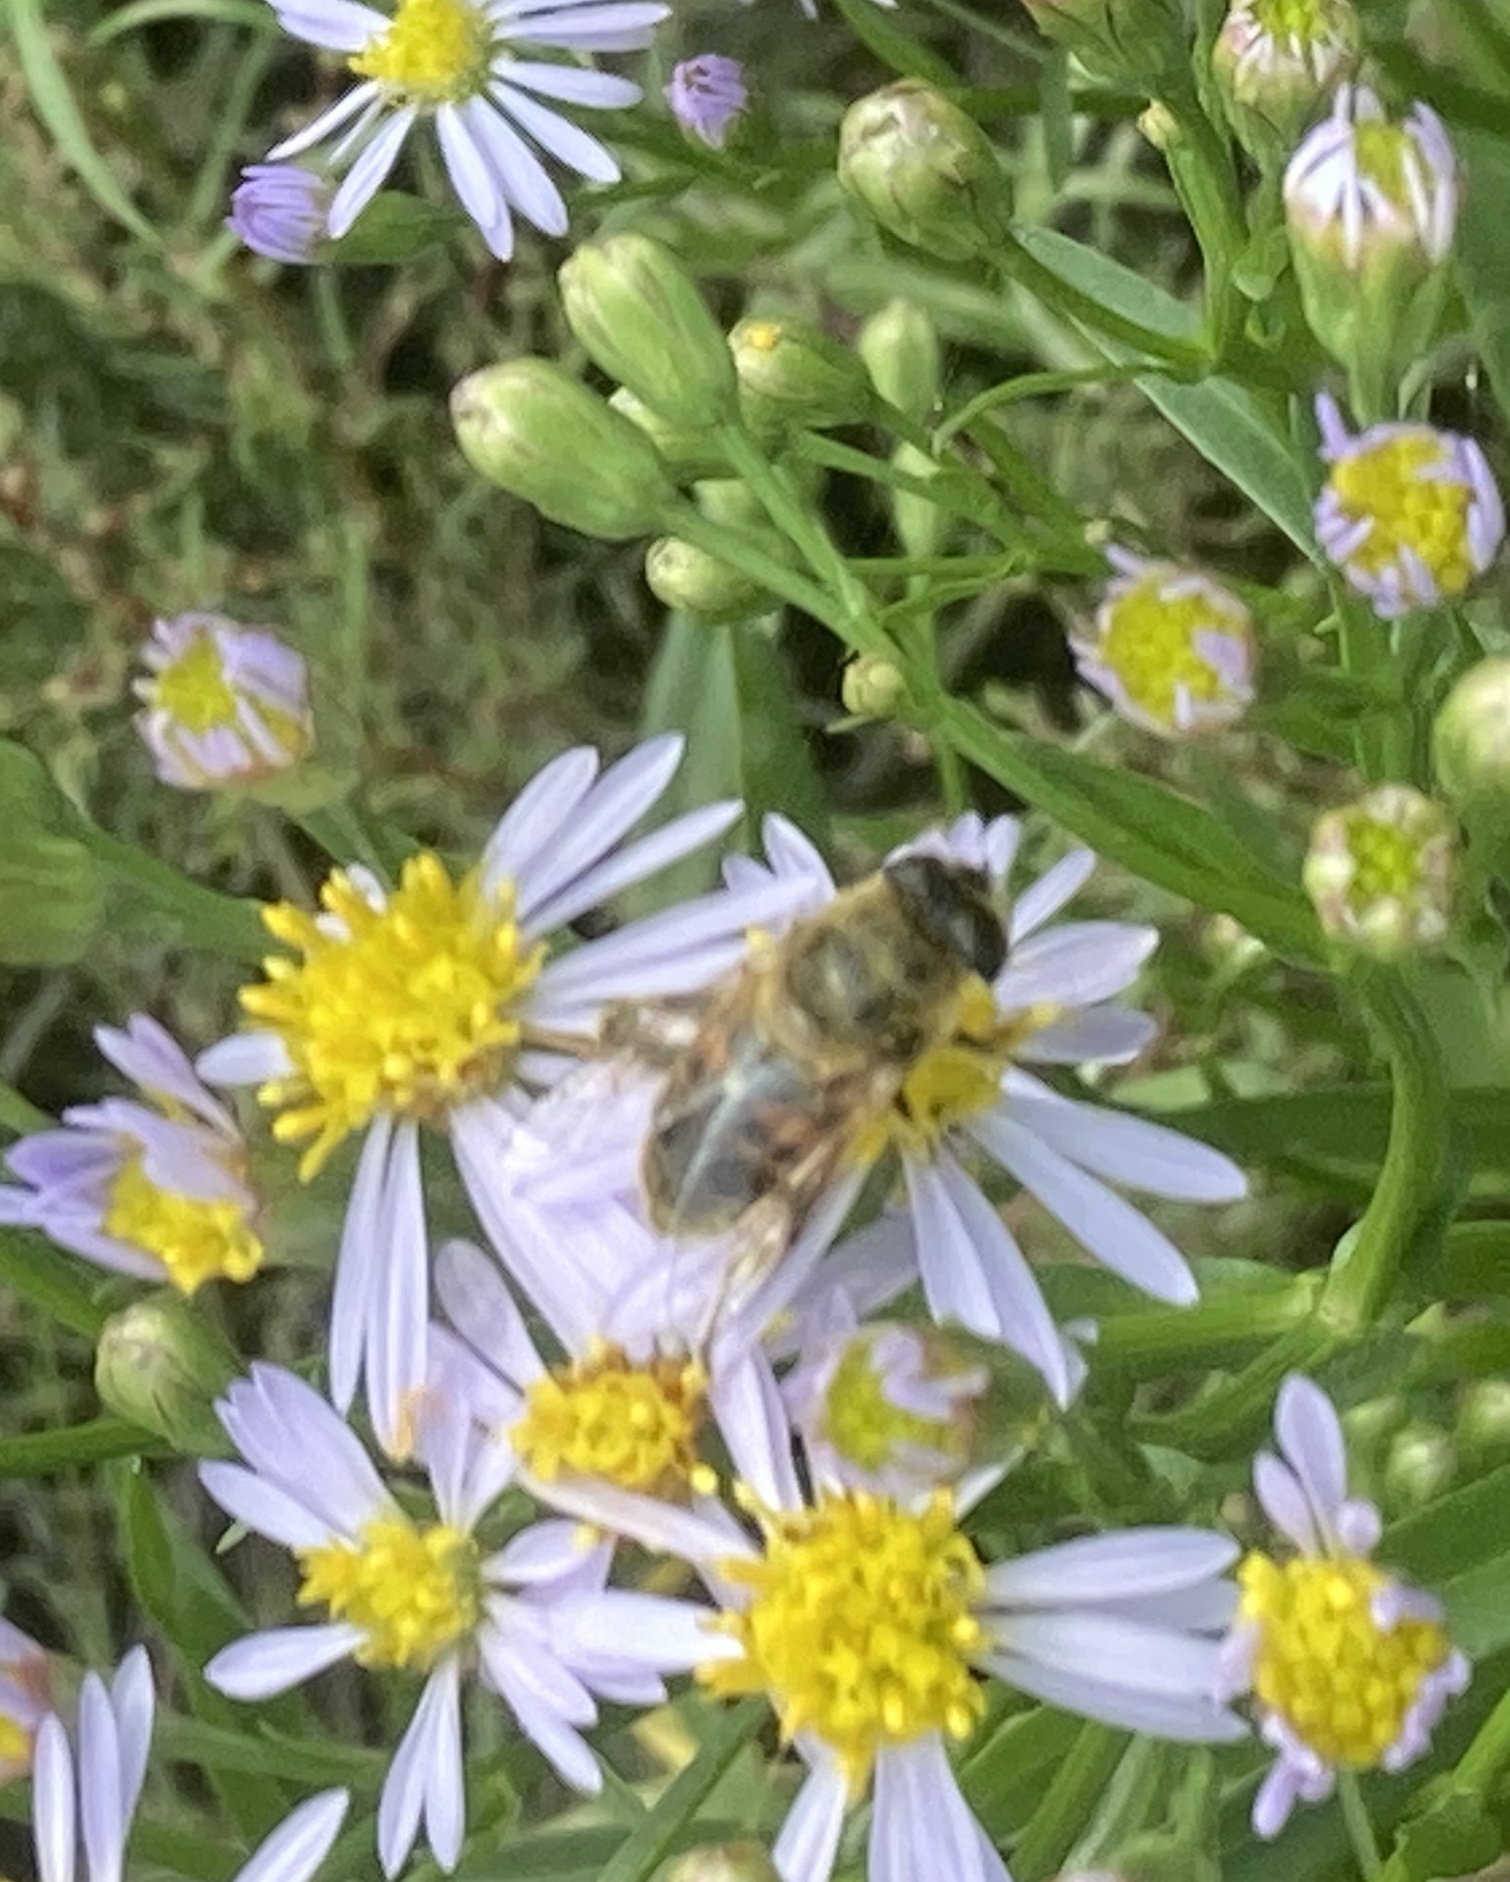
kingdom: Plantae
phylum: Tracheophyta
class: Magnoliopsida
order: Asterales
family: Asteraceae
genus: Tripolium
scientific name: Tripolium pannonicum
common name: Sea aster
